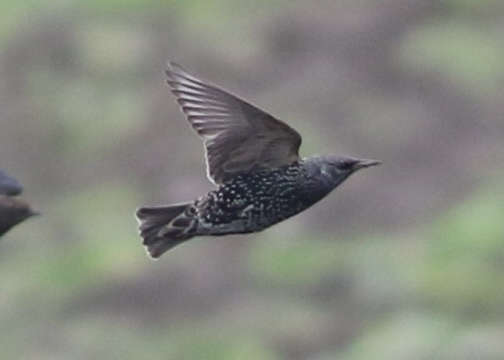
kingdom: Animalia
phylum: Chordata
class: Aves
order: Passeriformes
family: Sturnidae
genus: Sturnus
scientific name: Sturnus vulgaris
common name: Common starling
